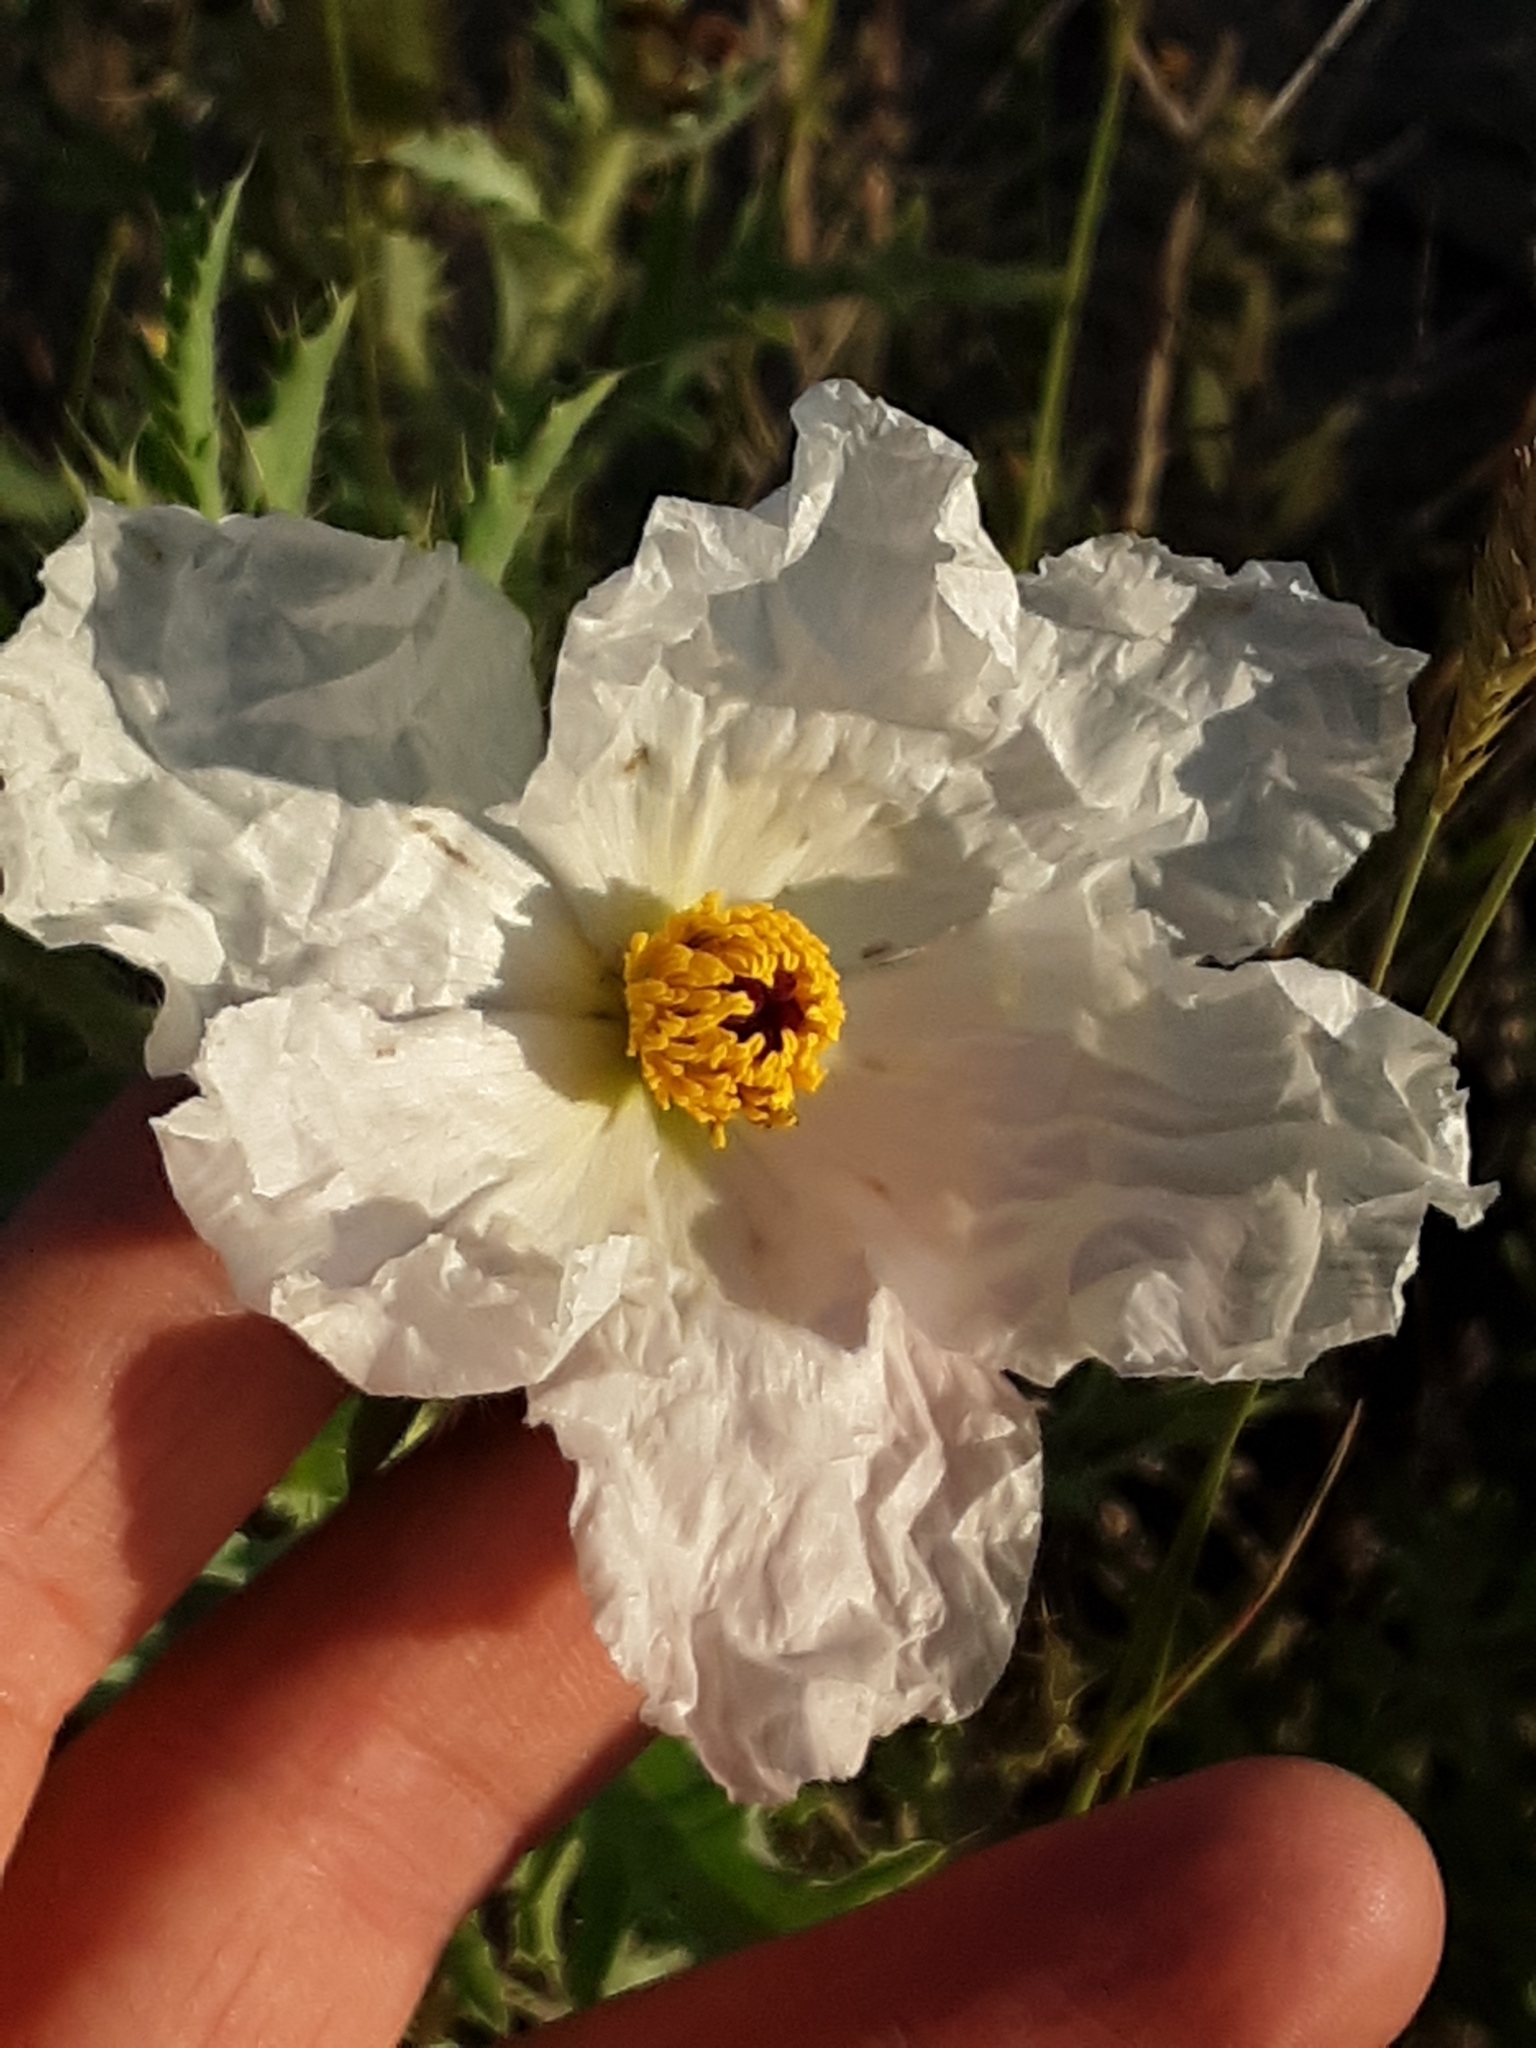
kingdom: Plantae
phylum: Tracheophyta
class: Magnoliopsida
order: Ranunculales
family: Papaveraceae
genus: Argemone
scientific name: Argemone polyanthemos
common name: Plains prickly-poppy
